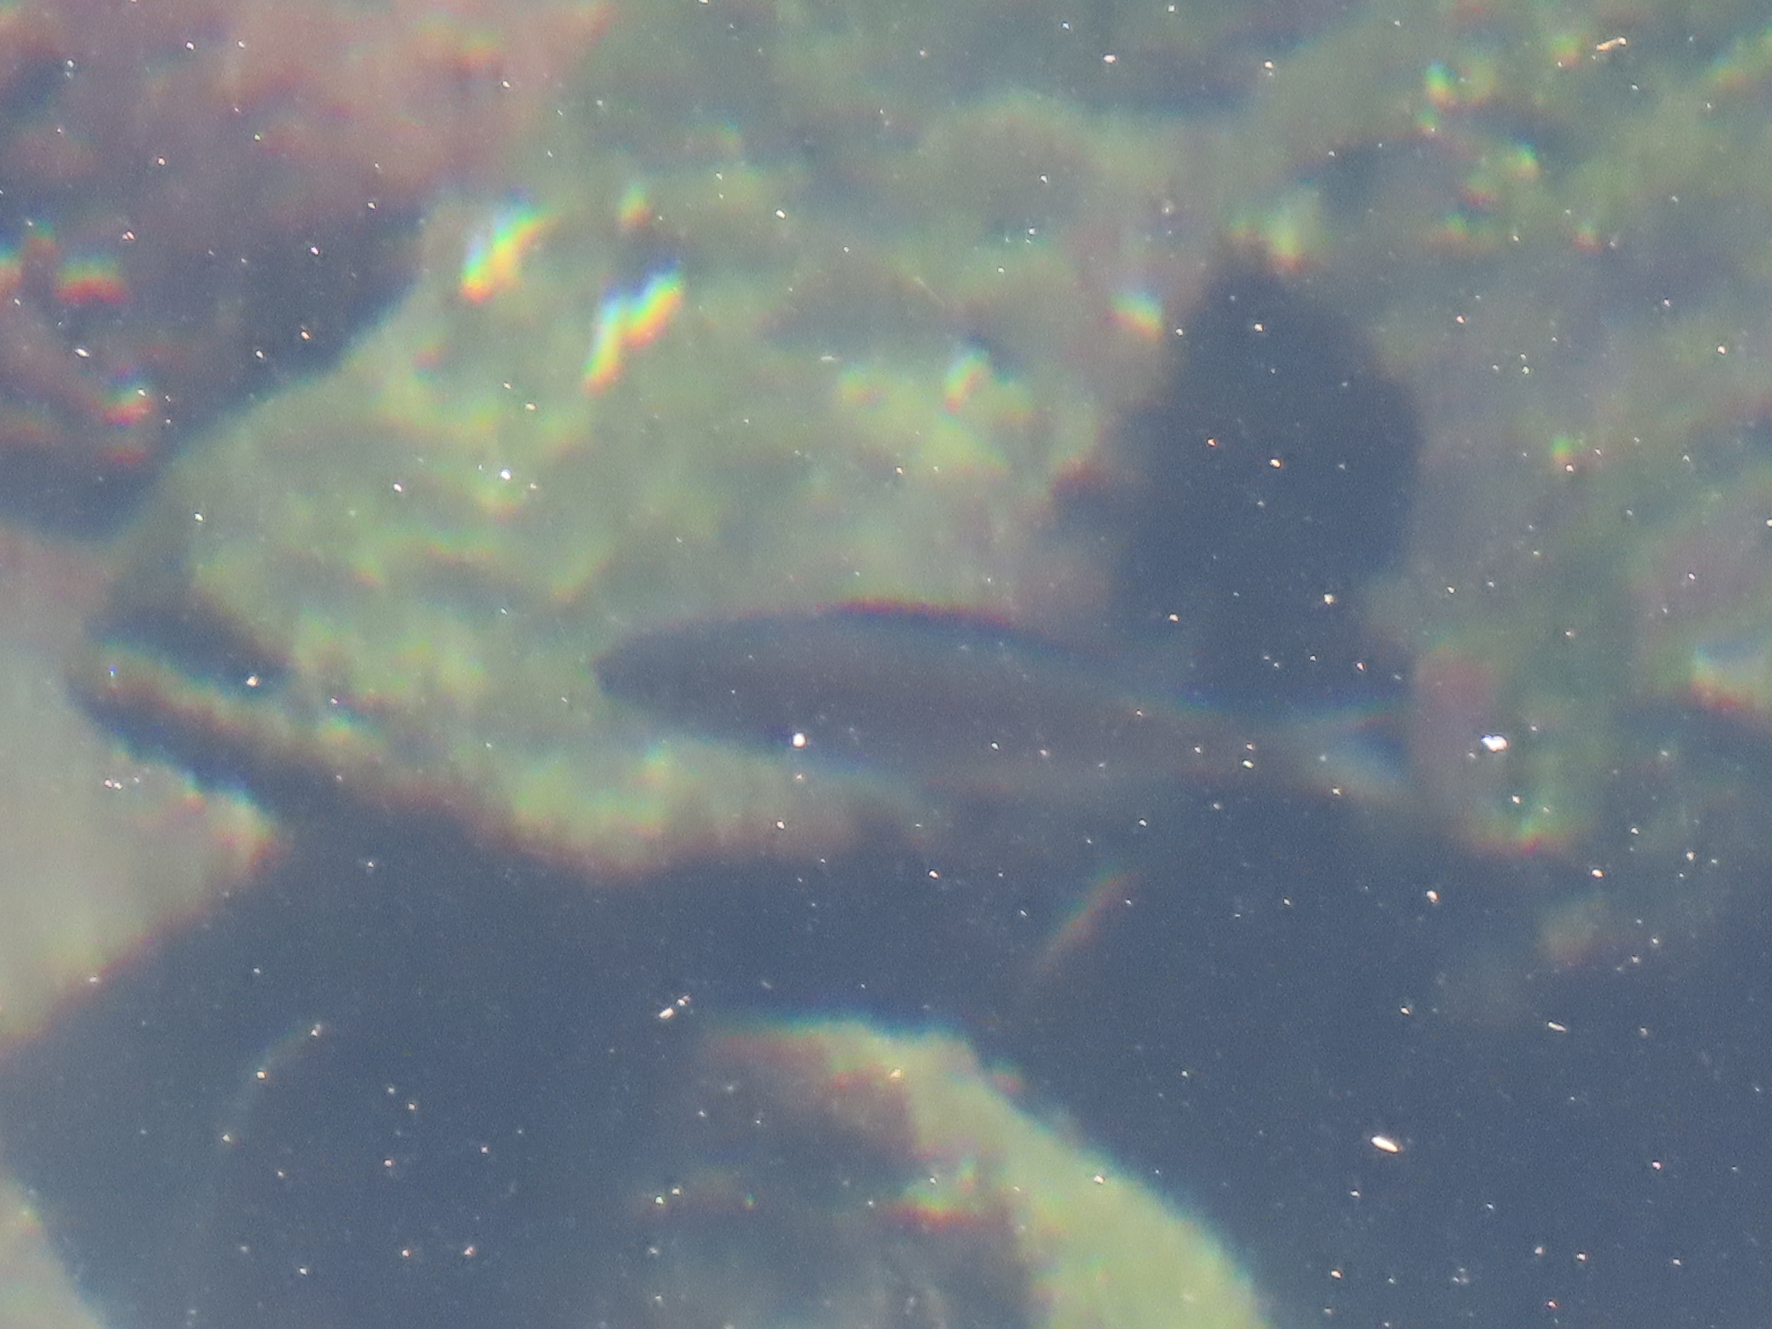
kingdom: Animalia
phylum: Chordata
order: Perciformes
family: Pomacentridae
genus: Chromis
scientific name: Chromis punctipinnis
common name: Blacksmith
